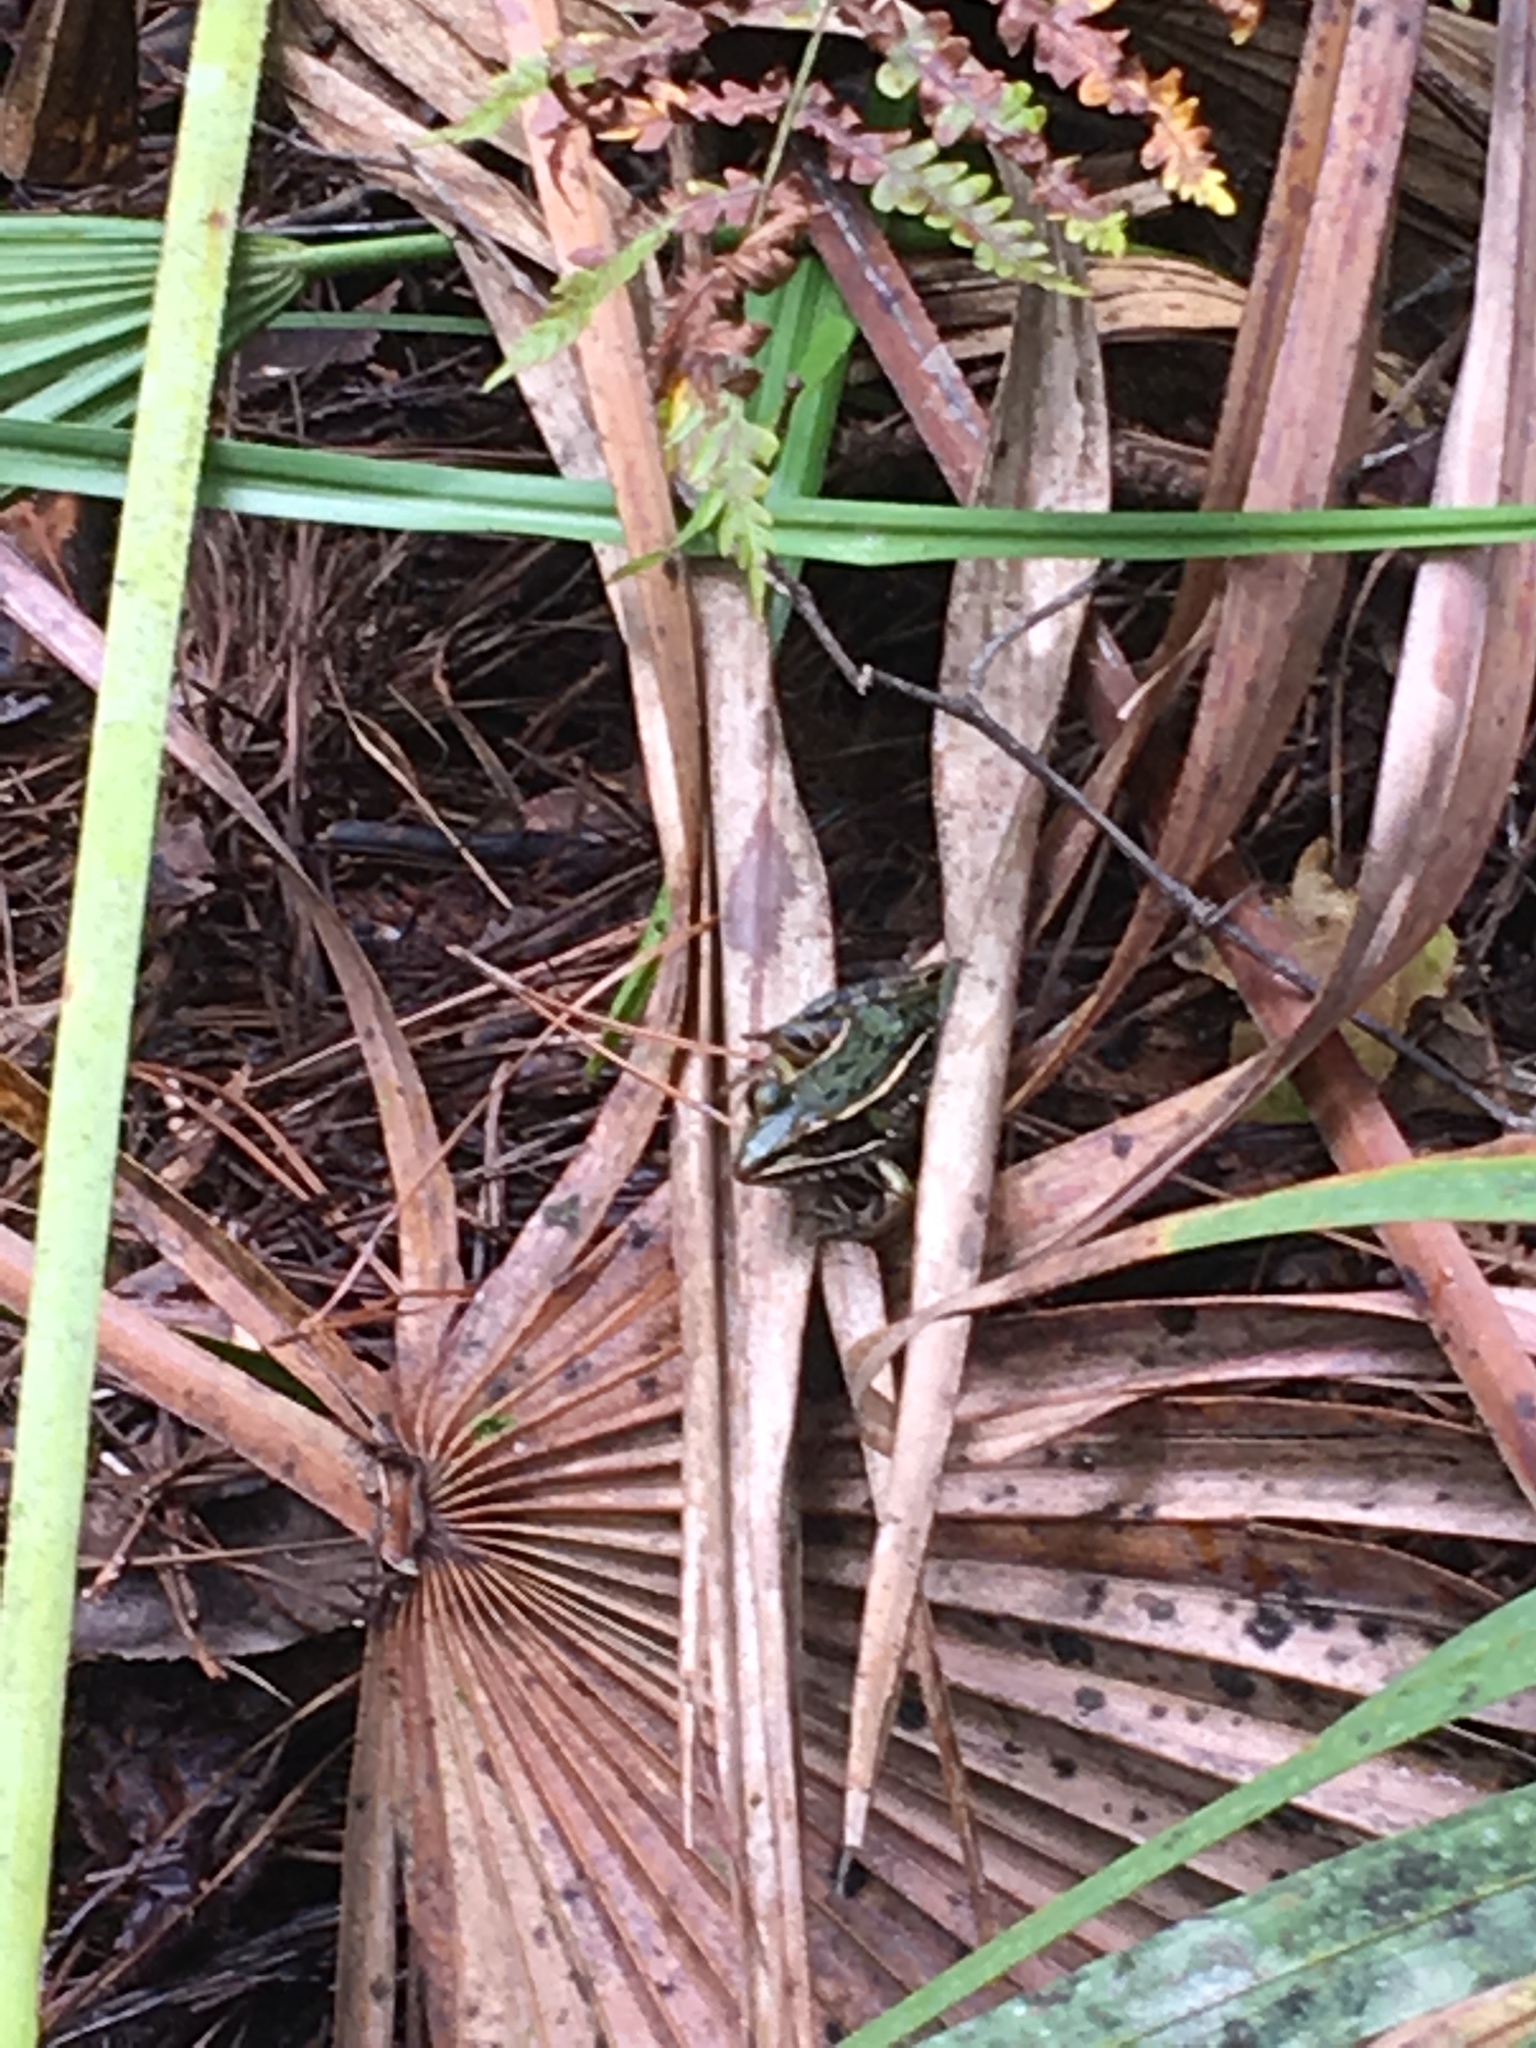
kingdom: Animalia
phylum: Chordata
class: Amphibia
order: Anura
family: Ranidae
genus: Lithobates
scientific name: Lithobates sphenocephalus
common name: Southern leopard frog
